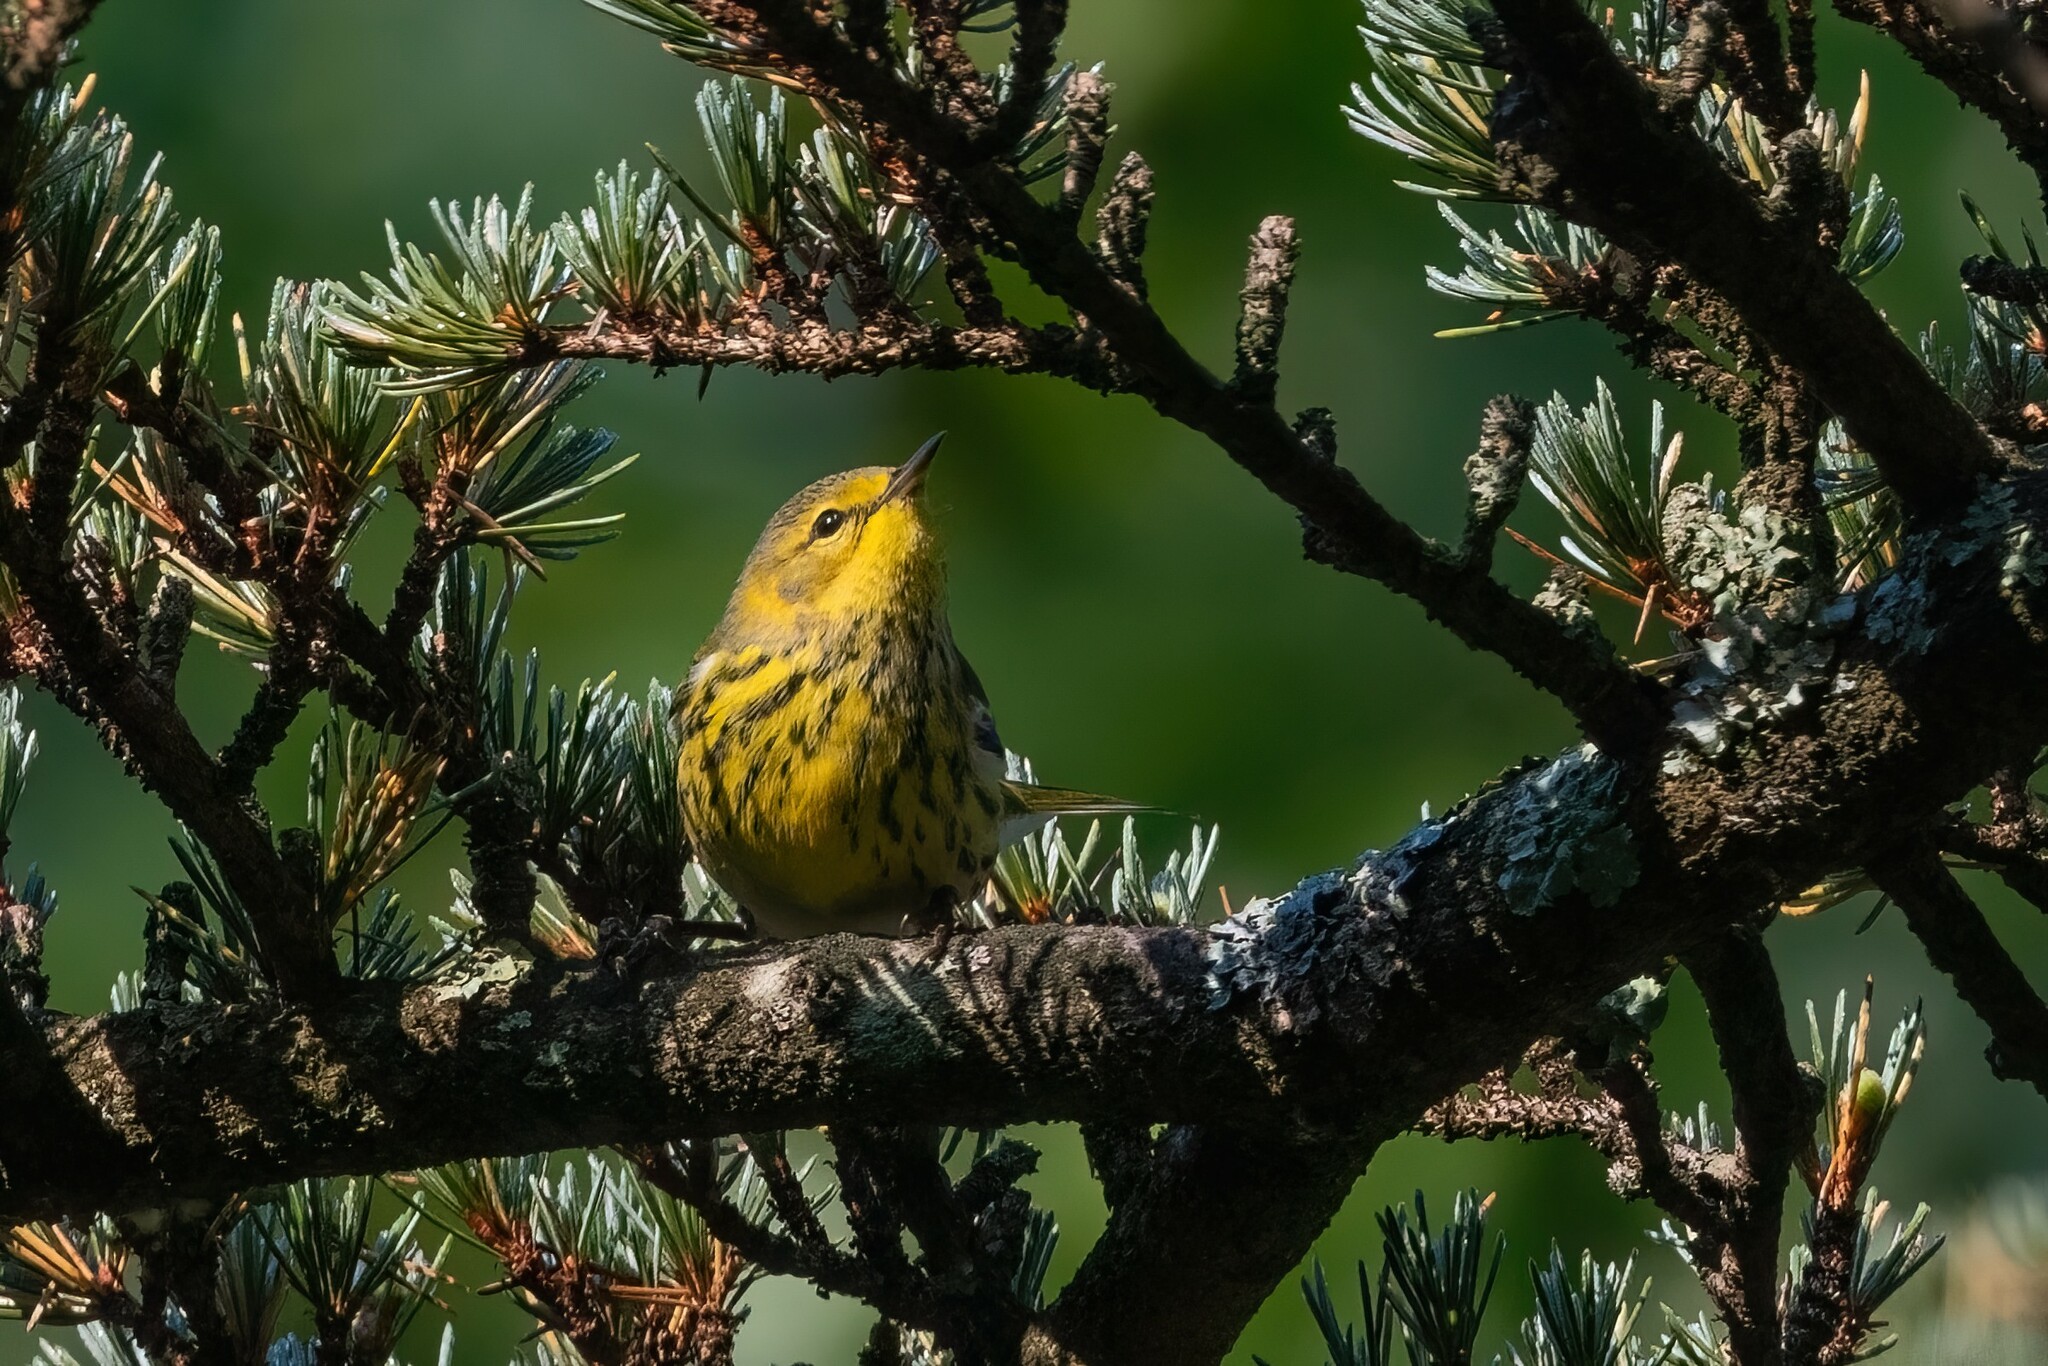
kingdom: Animalia
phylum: Chordata
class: Aves
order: Passeriformes
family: Parulidae
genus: Setophaga
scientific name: Setophaga tigrina
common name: Cape may warbler
